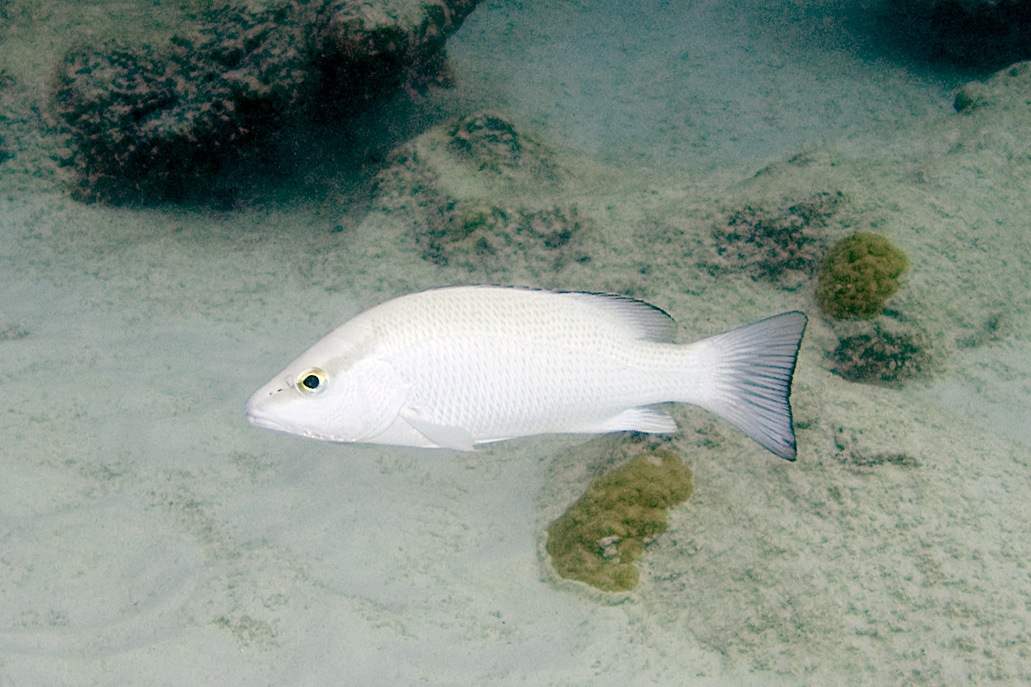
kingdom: Animalia
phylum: Chordata
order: Perciformes
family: Lutjanidae
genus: Lutjanus
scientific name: Lutjanus griseus
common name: Gray snapper
